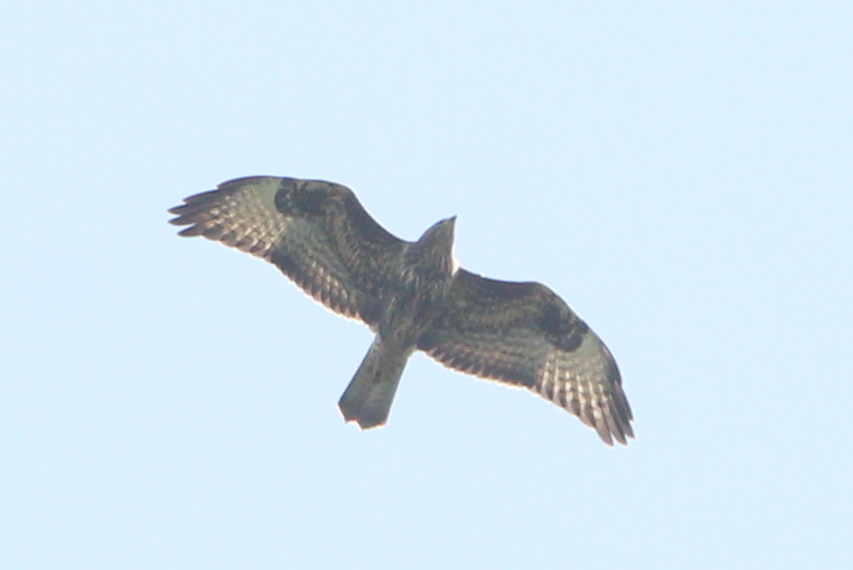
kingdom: Animalia
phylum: Chordata
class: Aves
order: Accipitriformes
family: Accipitridae
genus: Pernis
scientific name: Pernis apivorus
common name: European honey buzzard
